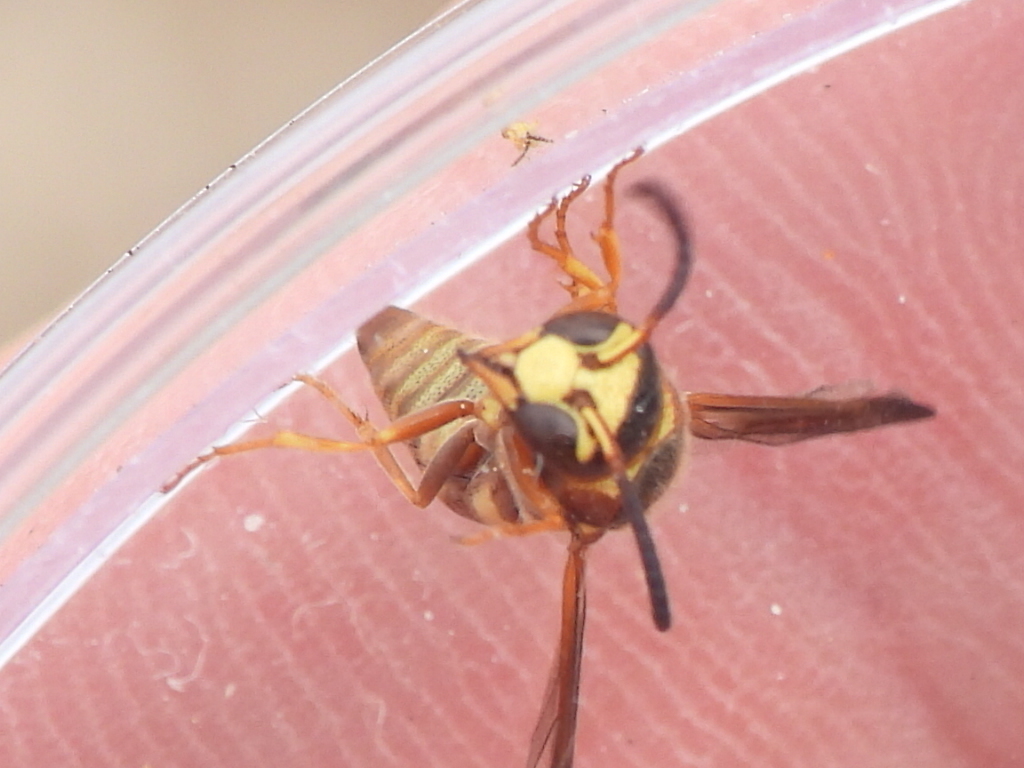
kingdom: Animalia
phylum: Arthropoda
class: Insecta
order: Hymenoptera
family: Eumenidae
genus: Euodynerus
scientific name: Euodynerus pratensis
